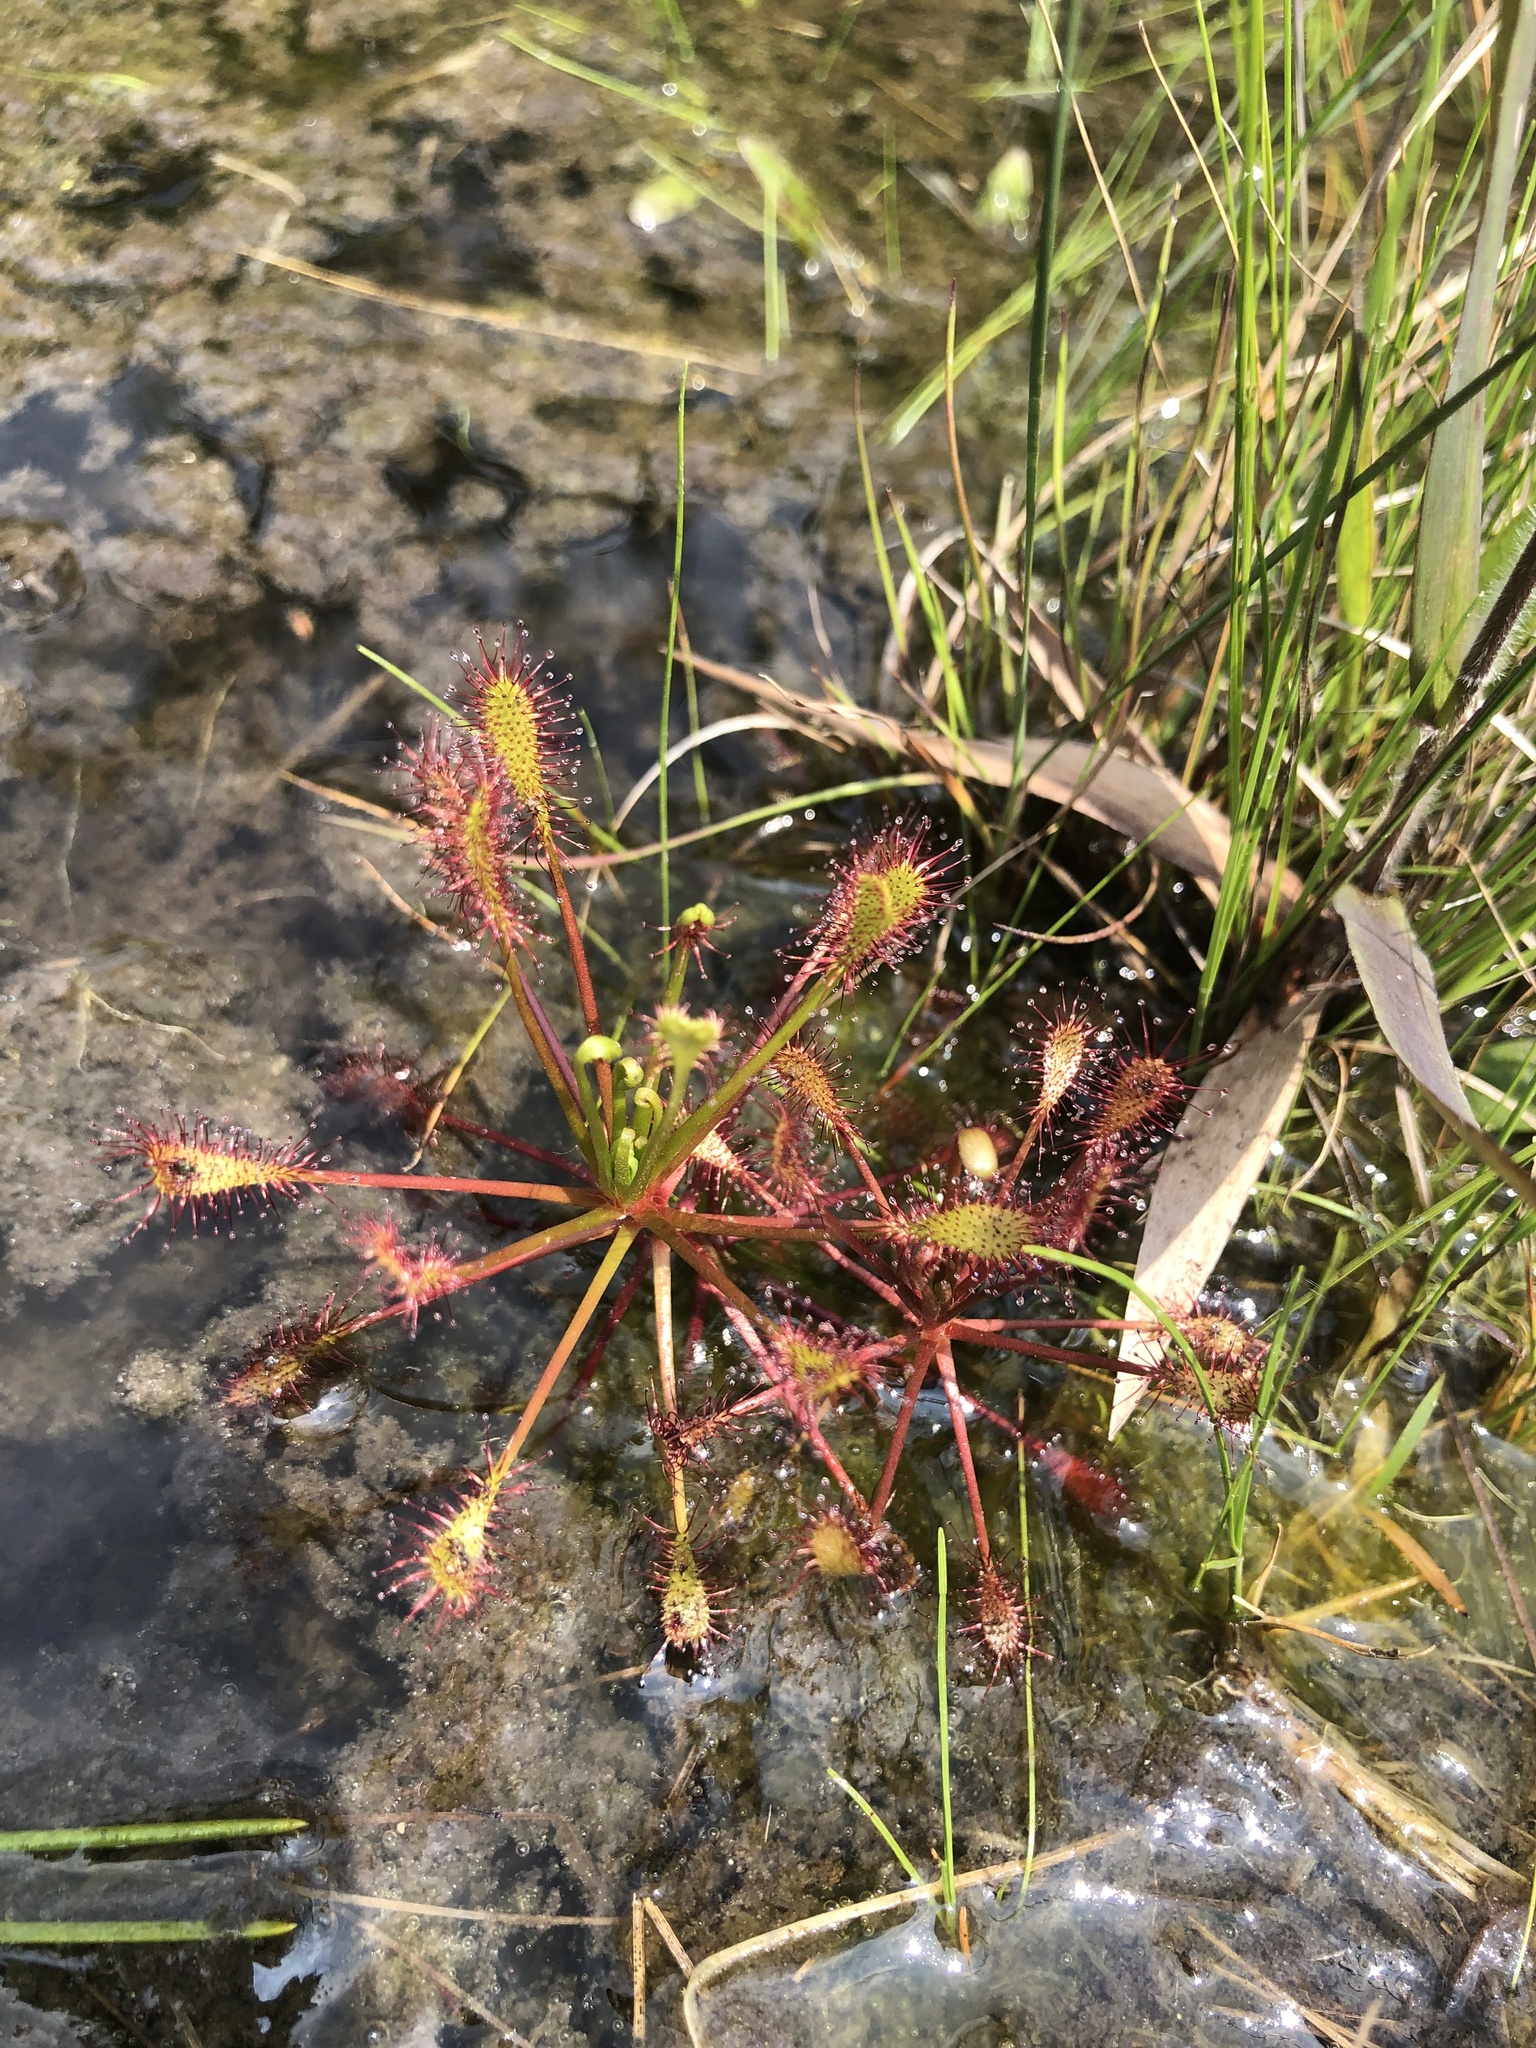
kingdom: Plantae
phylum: Tracheophyta
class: Magnoliopsida
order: Caryophyllales
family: Droseraceae
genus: Drosera
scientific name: Drosera intermedia
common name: Oblong-leaved sundew
